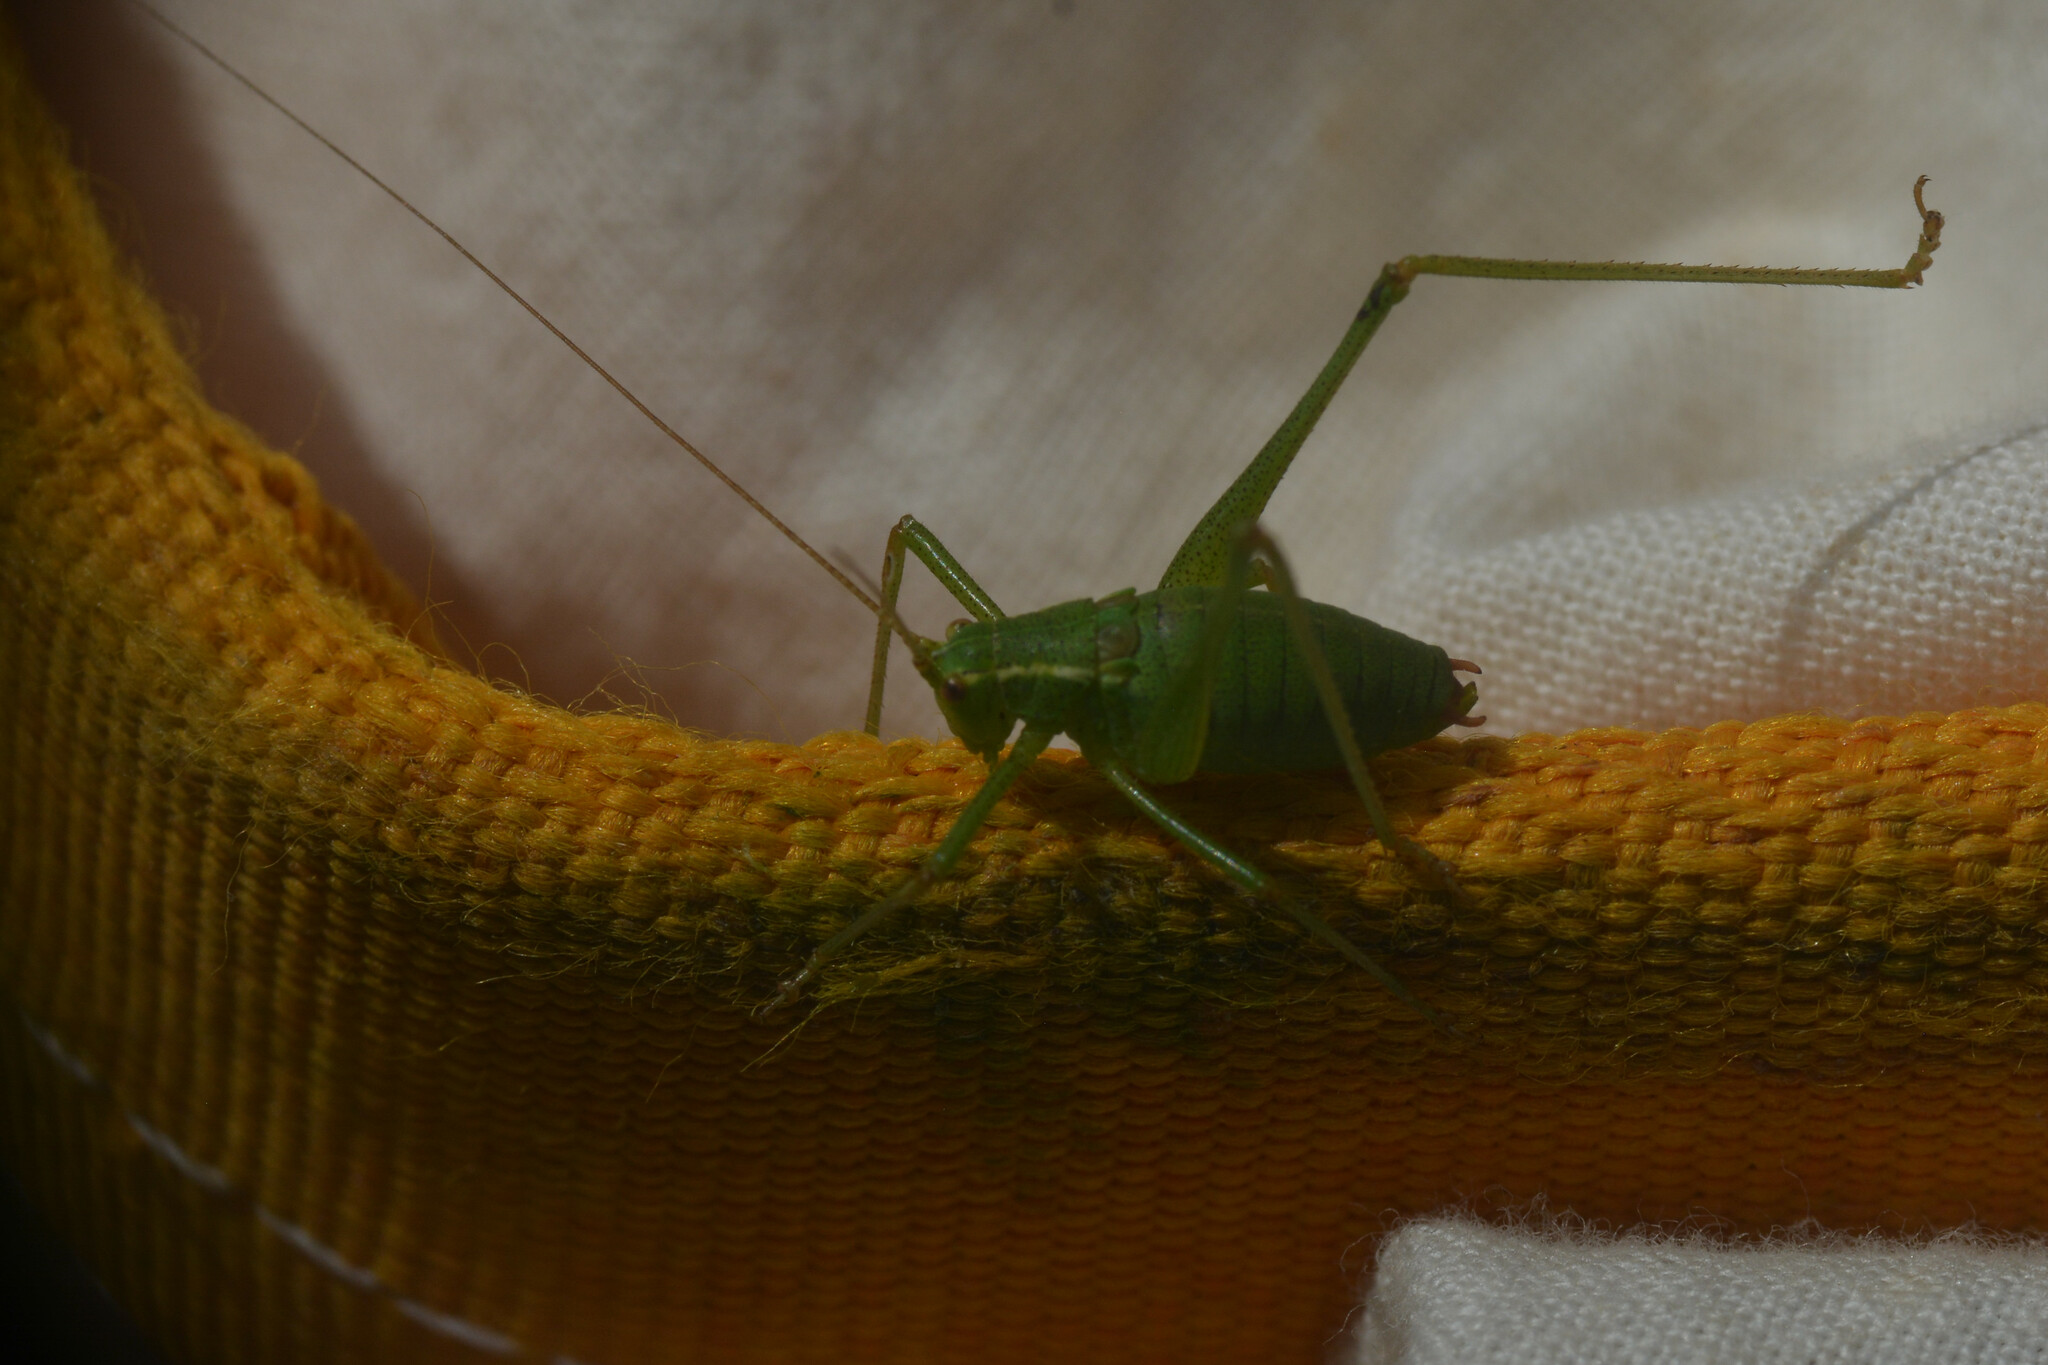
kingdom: Animalia
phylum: Arthropoda
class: Insecta
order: Orthoptera
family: Tettigoniidae
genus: Leptophyes
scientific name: Leptophyes punctatissima
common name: Speckled bush-cricket
